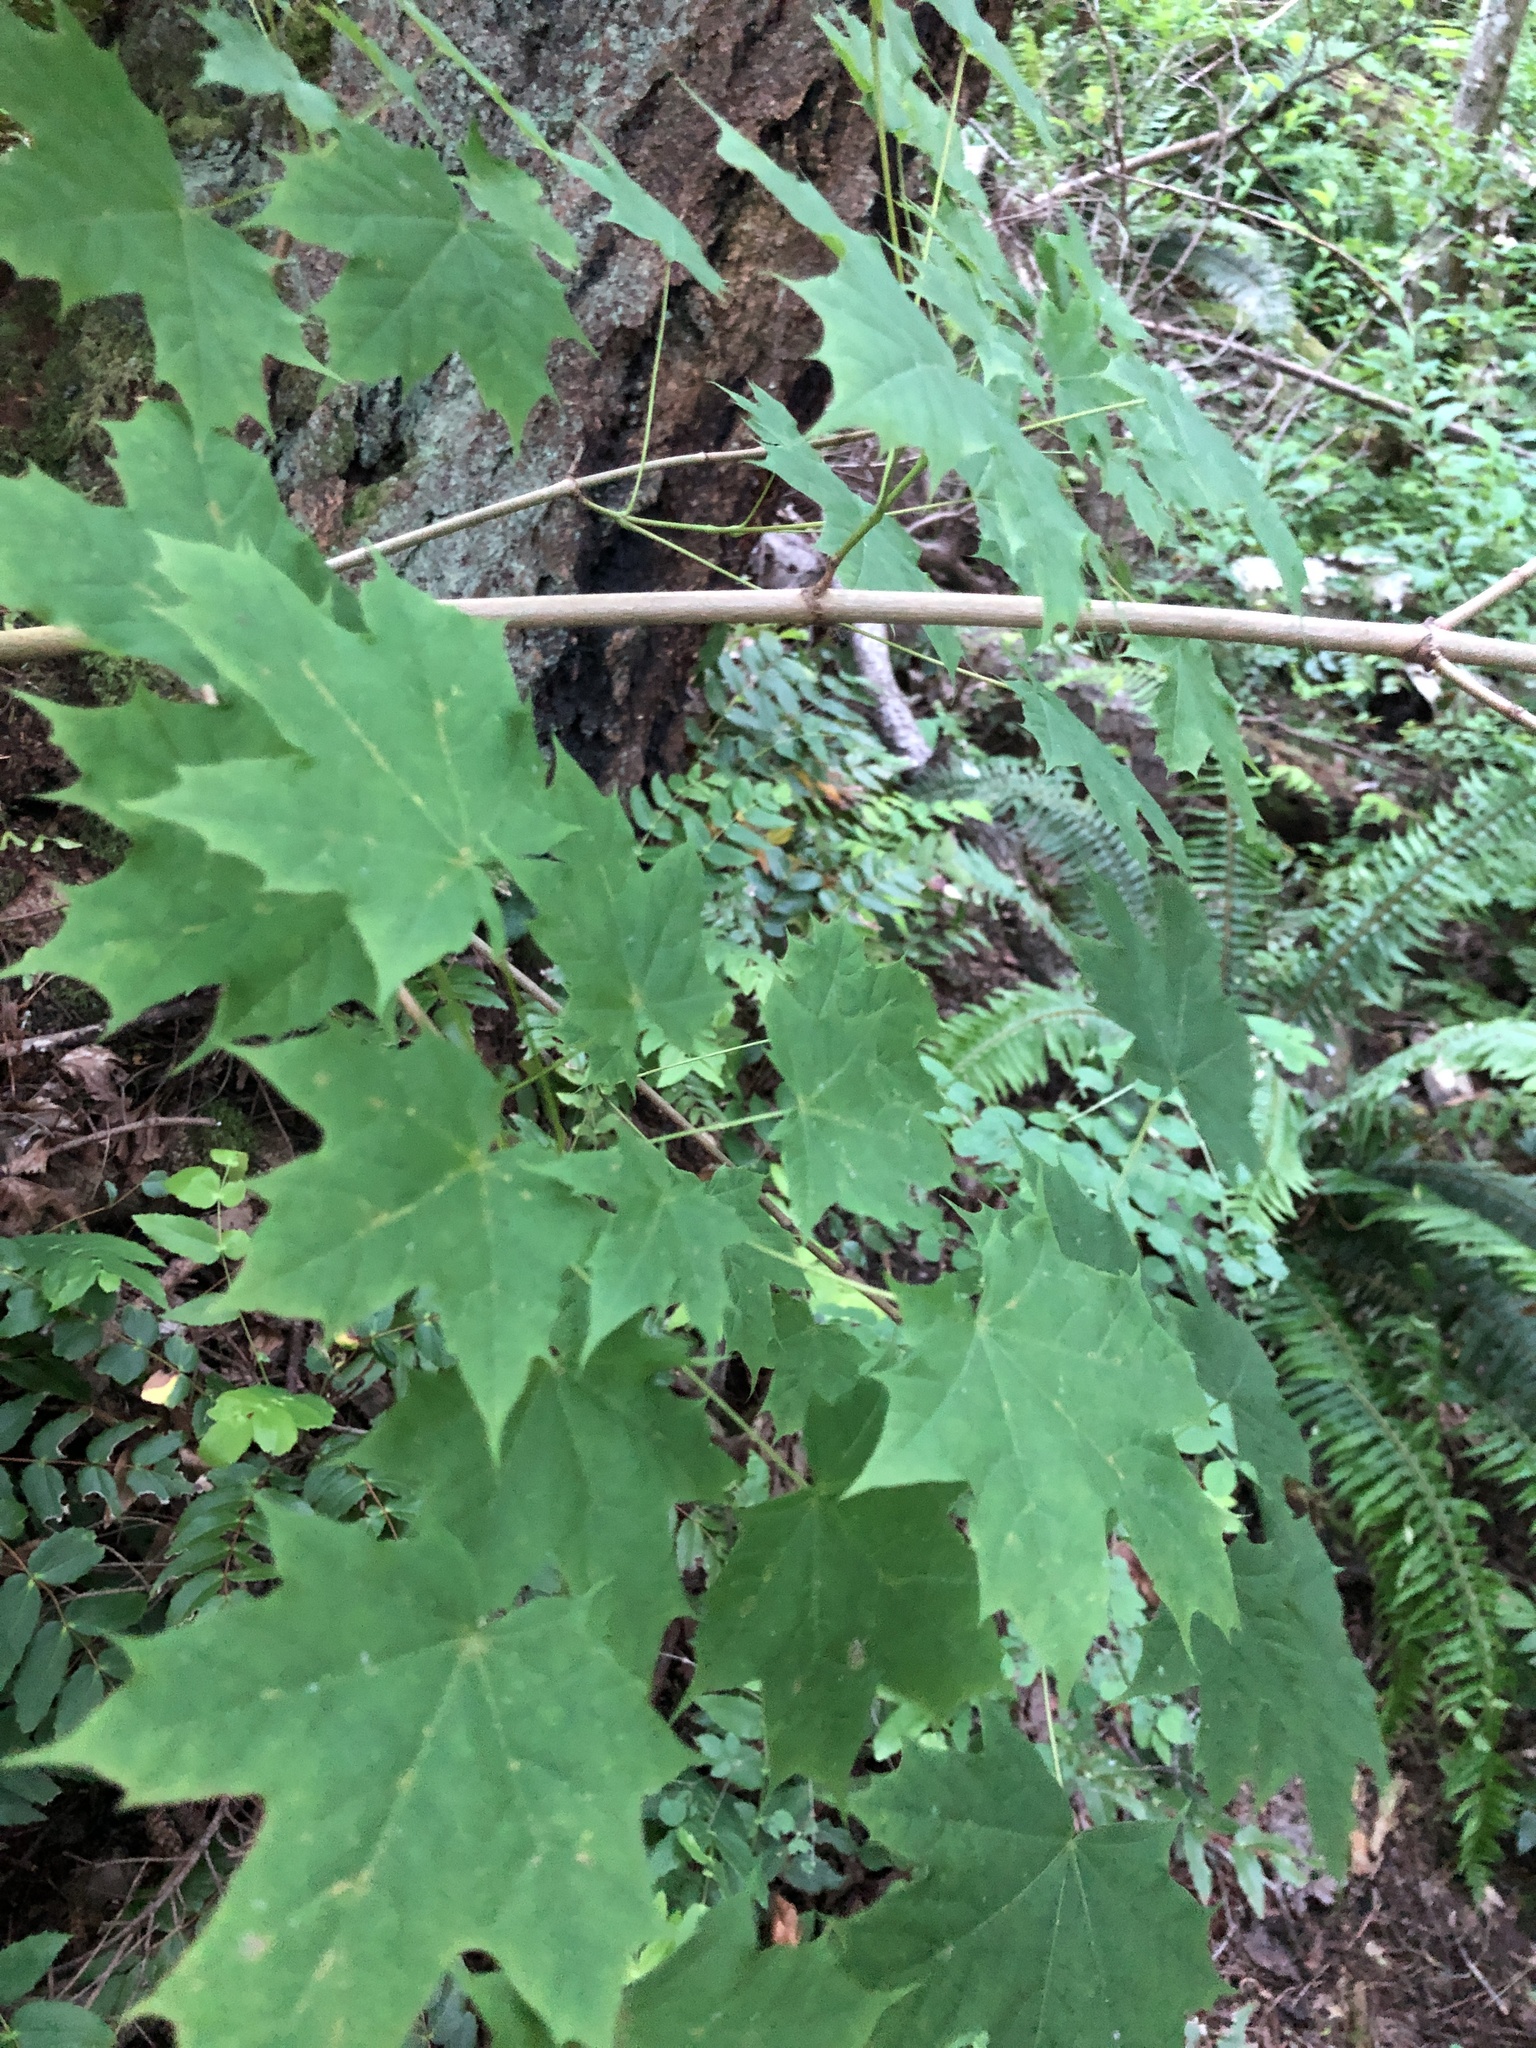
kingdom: Plantae
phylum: Tracheophyta
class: Magnoliopsida
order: Sapindales
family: Sapindaceae
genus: Acer
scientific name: Acer platanoides
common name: Norway maple
